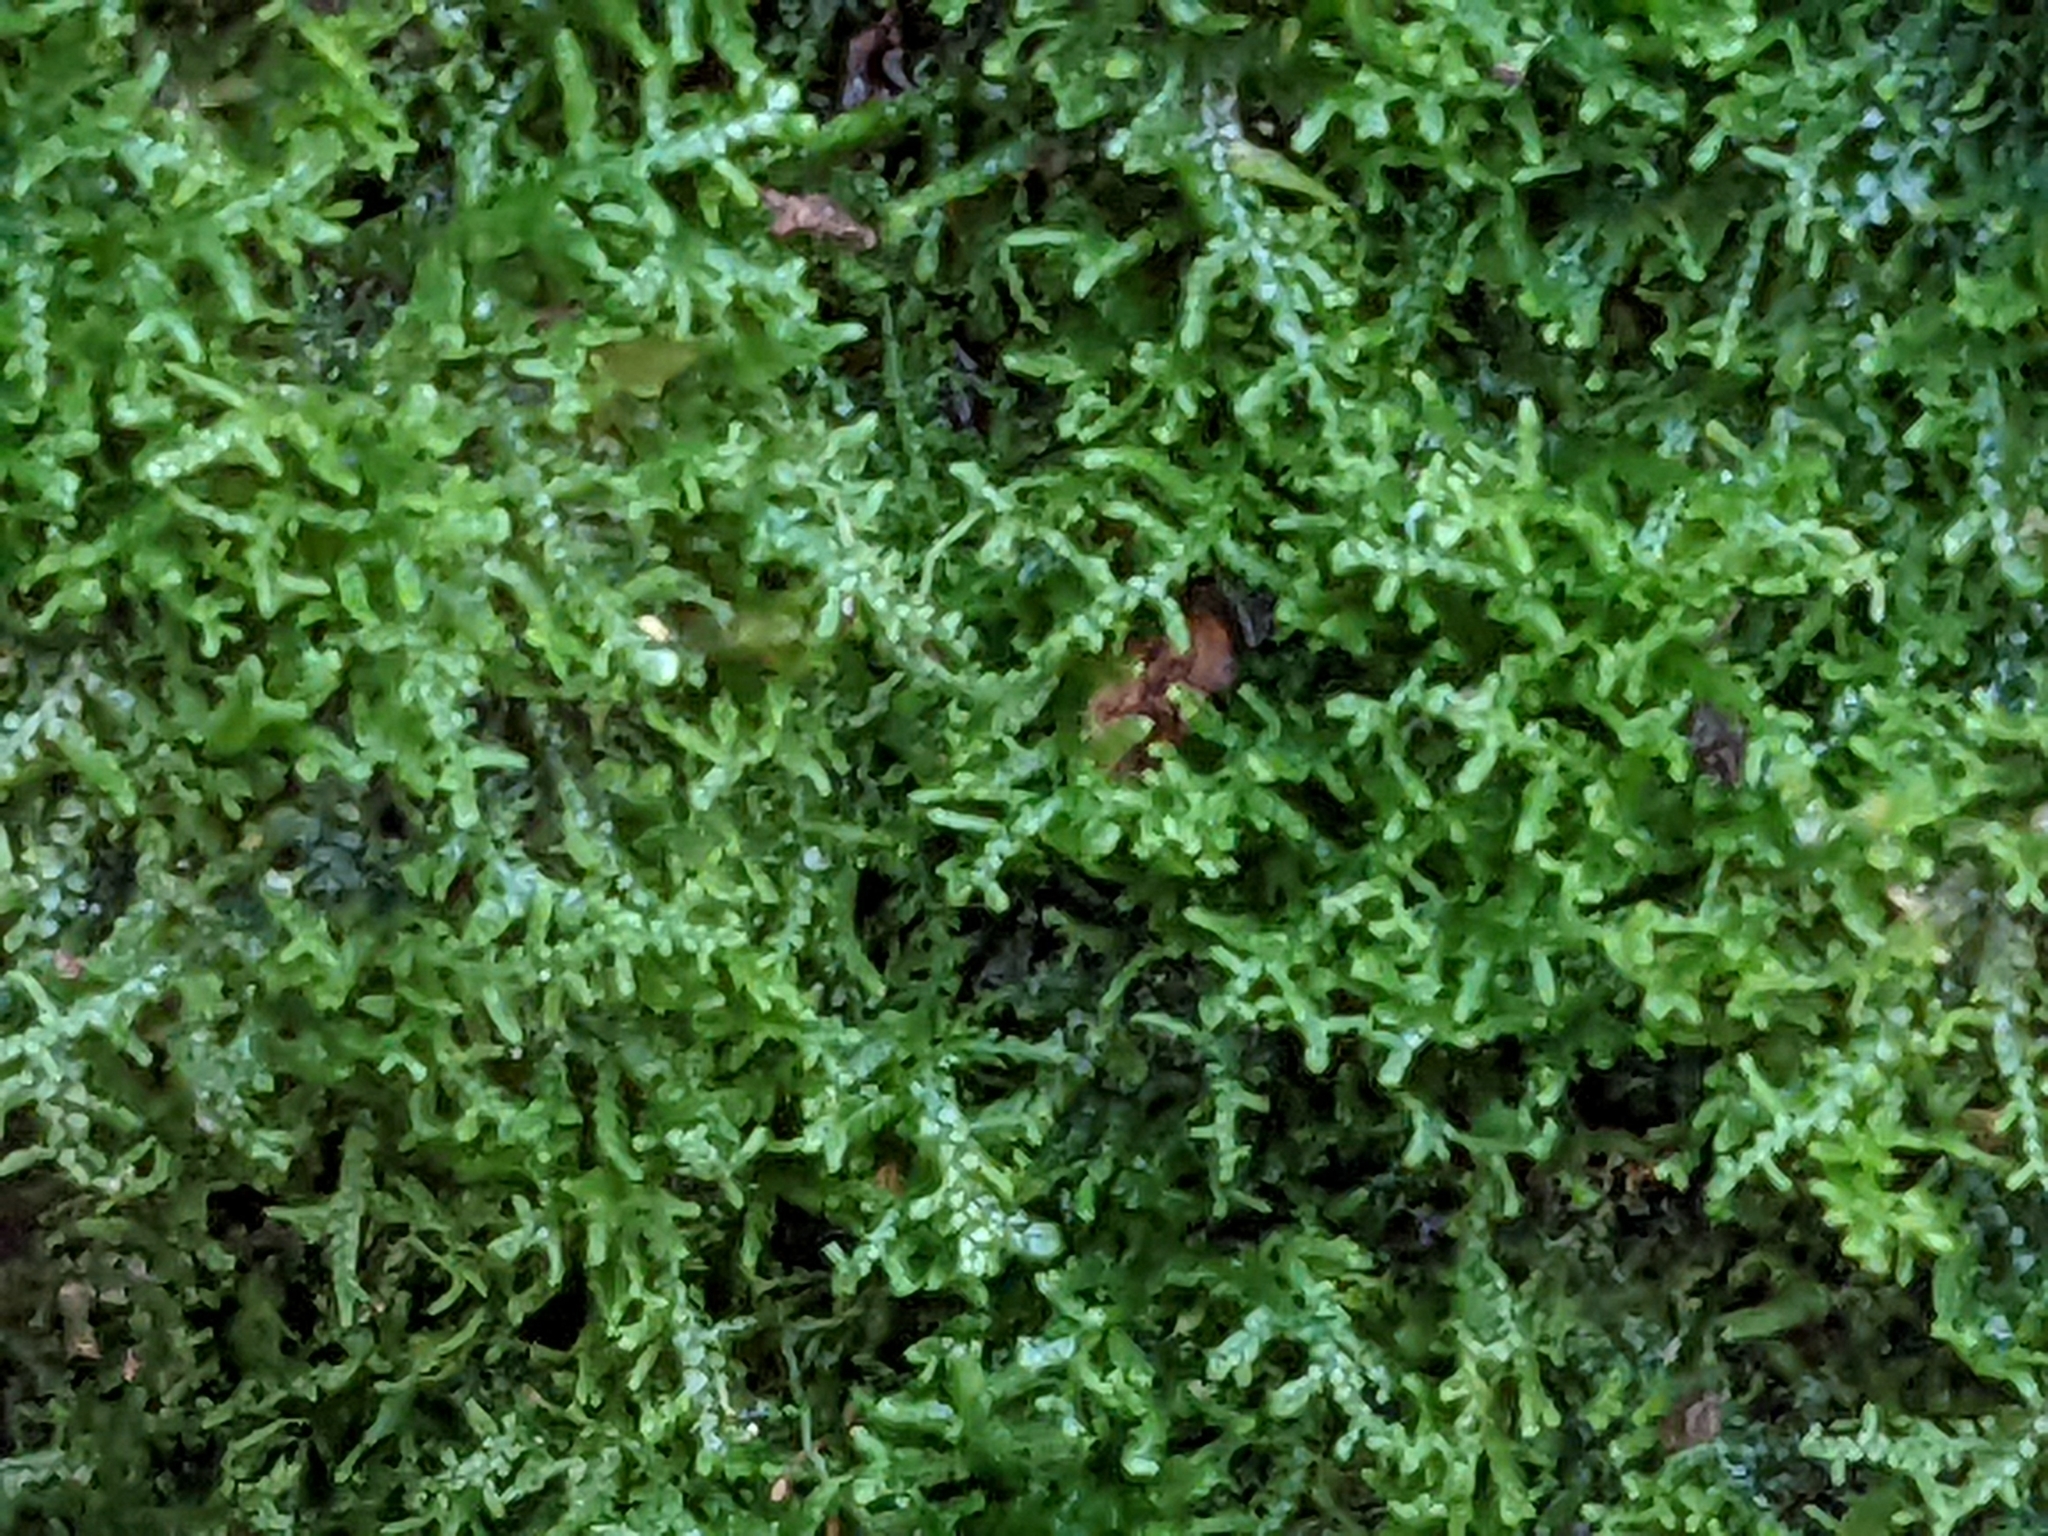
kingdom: Plantae
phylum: Marchantiophyta
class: Jungermanniopsida
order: Jungermanniales
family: Lepidoziaceae
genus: Lepidozia
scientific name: Lepidozia reptans
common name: Creeping fingerwort
